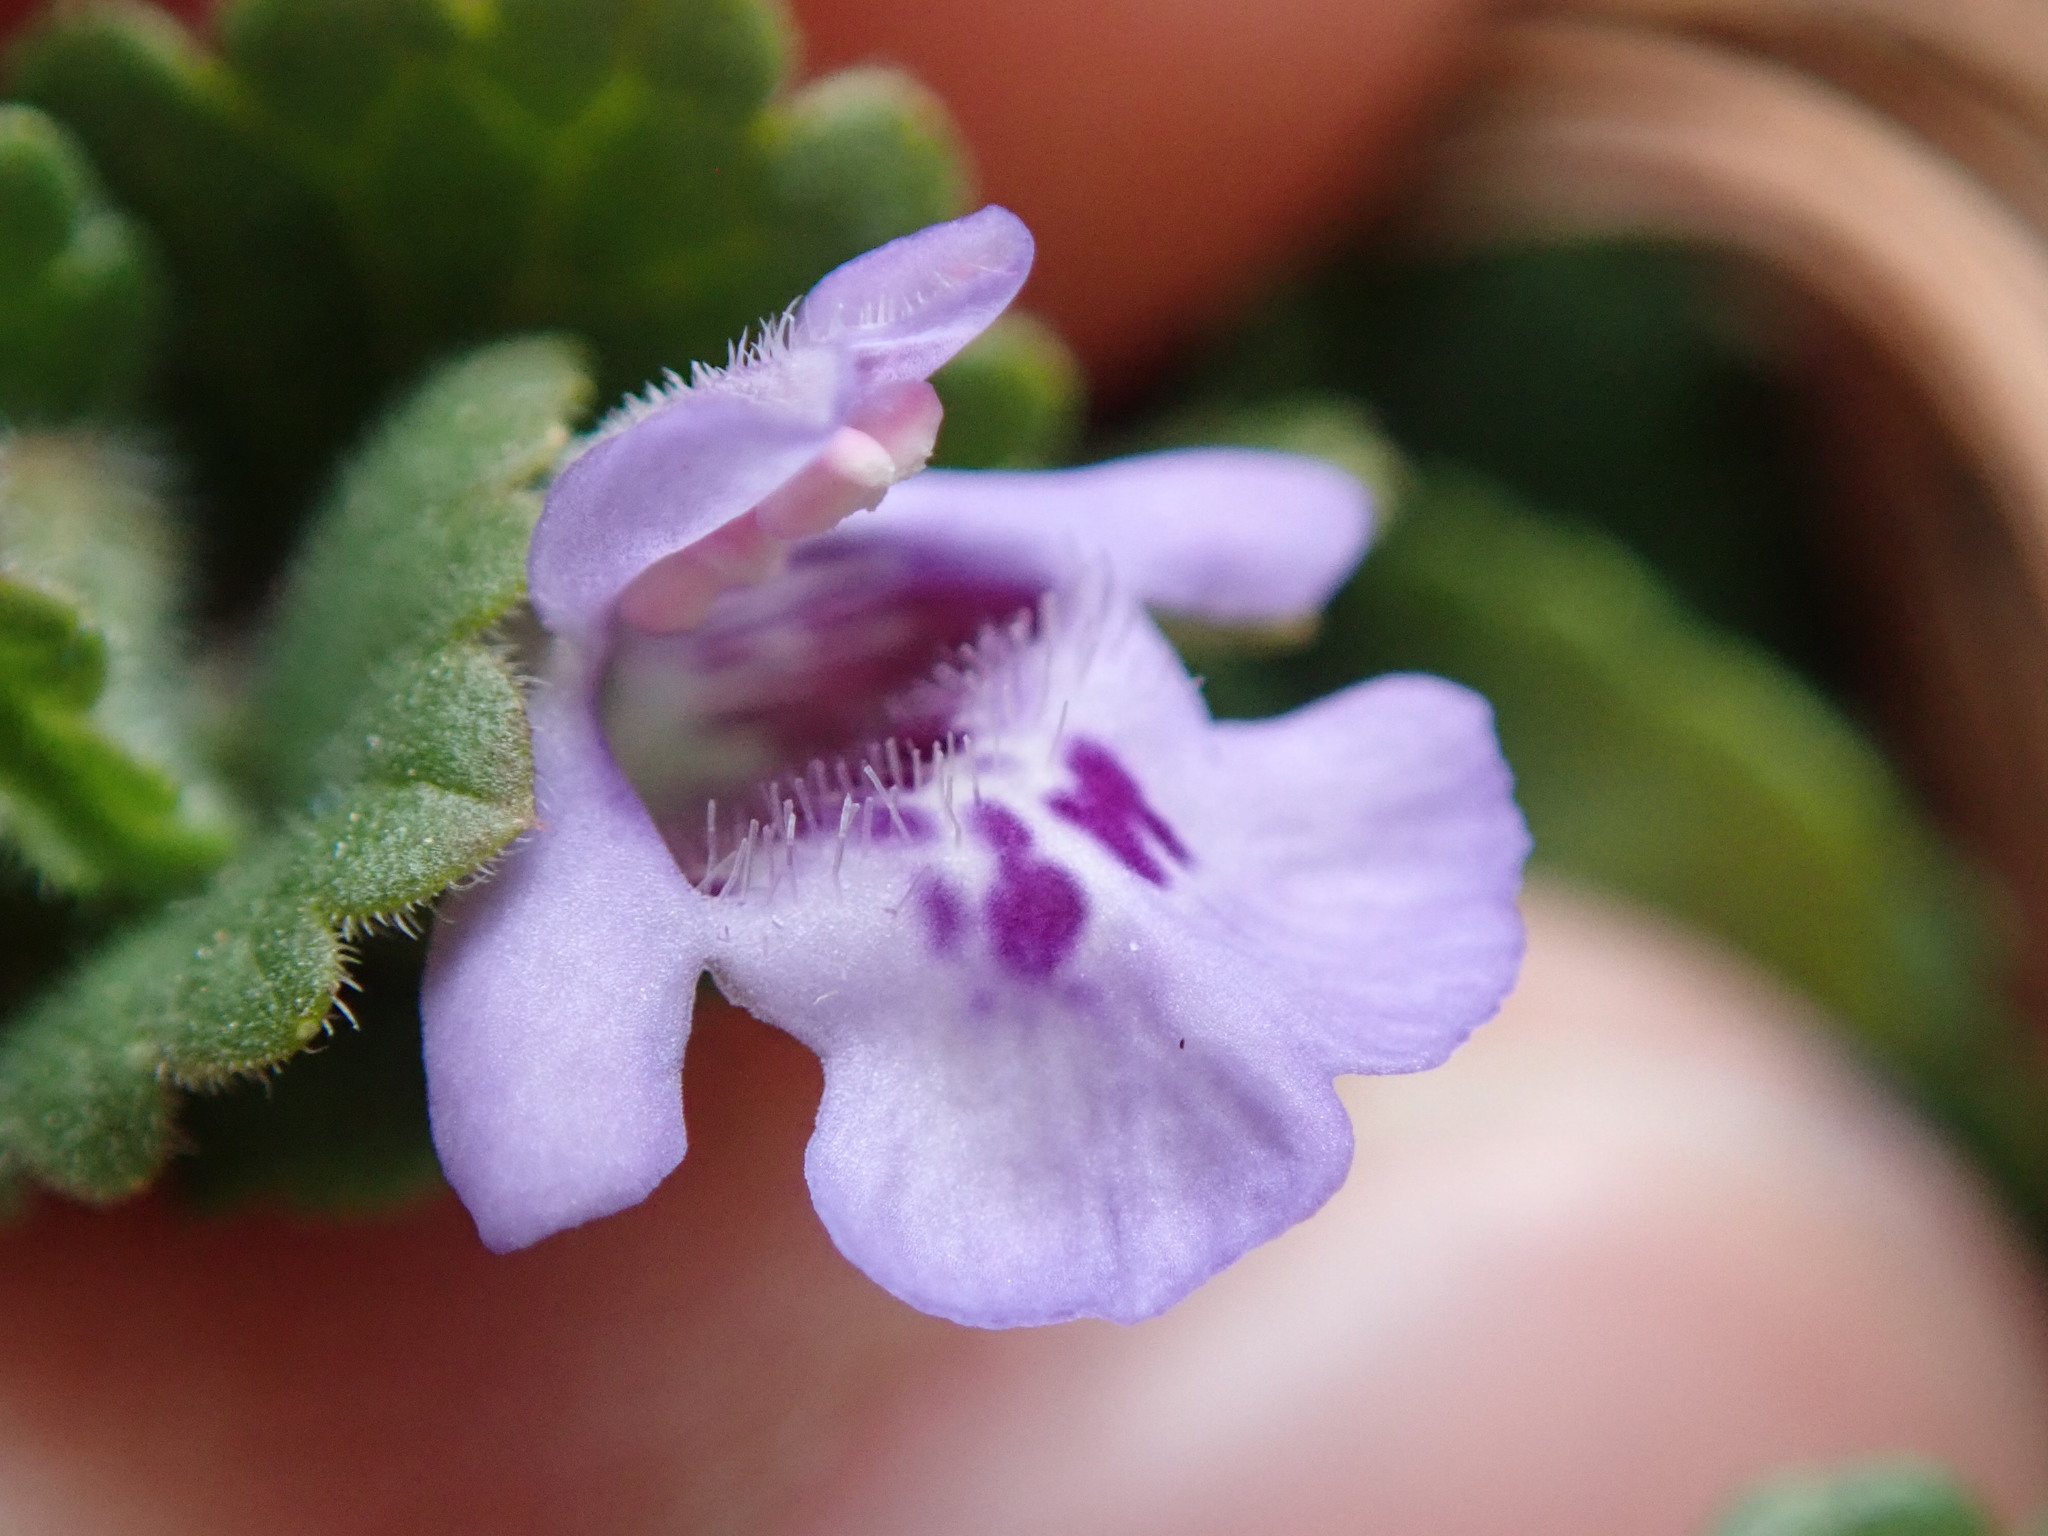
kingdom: Plantae
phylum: Tracheophyta
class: Magnoliopsida
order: Lamiales
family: Lamiaceae
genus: Glechoma
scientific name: Glechoma hederacea
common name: Ground ivy
